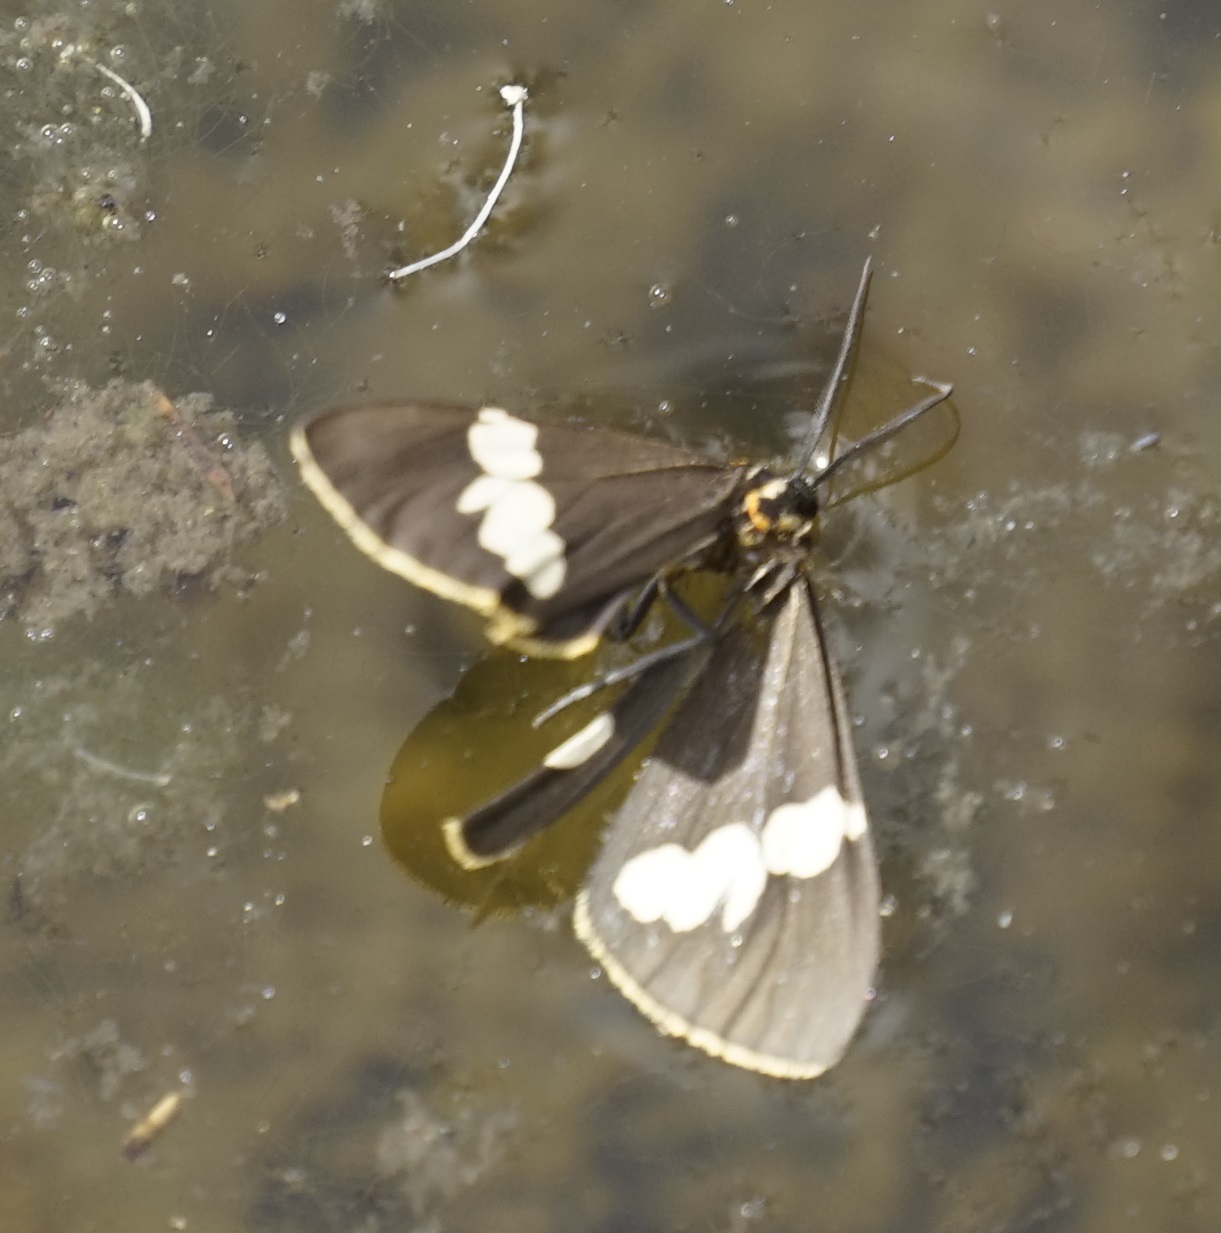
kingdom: Animalia
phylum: Arthropoda
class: Insecta
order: Lepidoptera
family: Erebidae
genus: Nyctemera
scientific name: Nyctemera amicus
